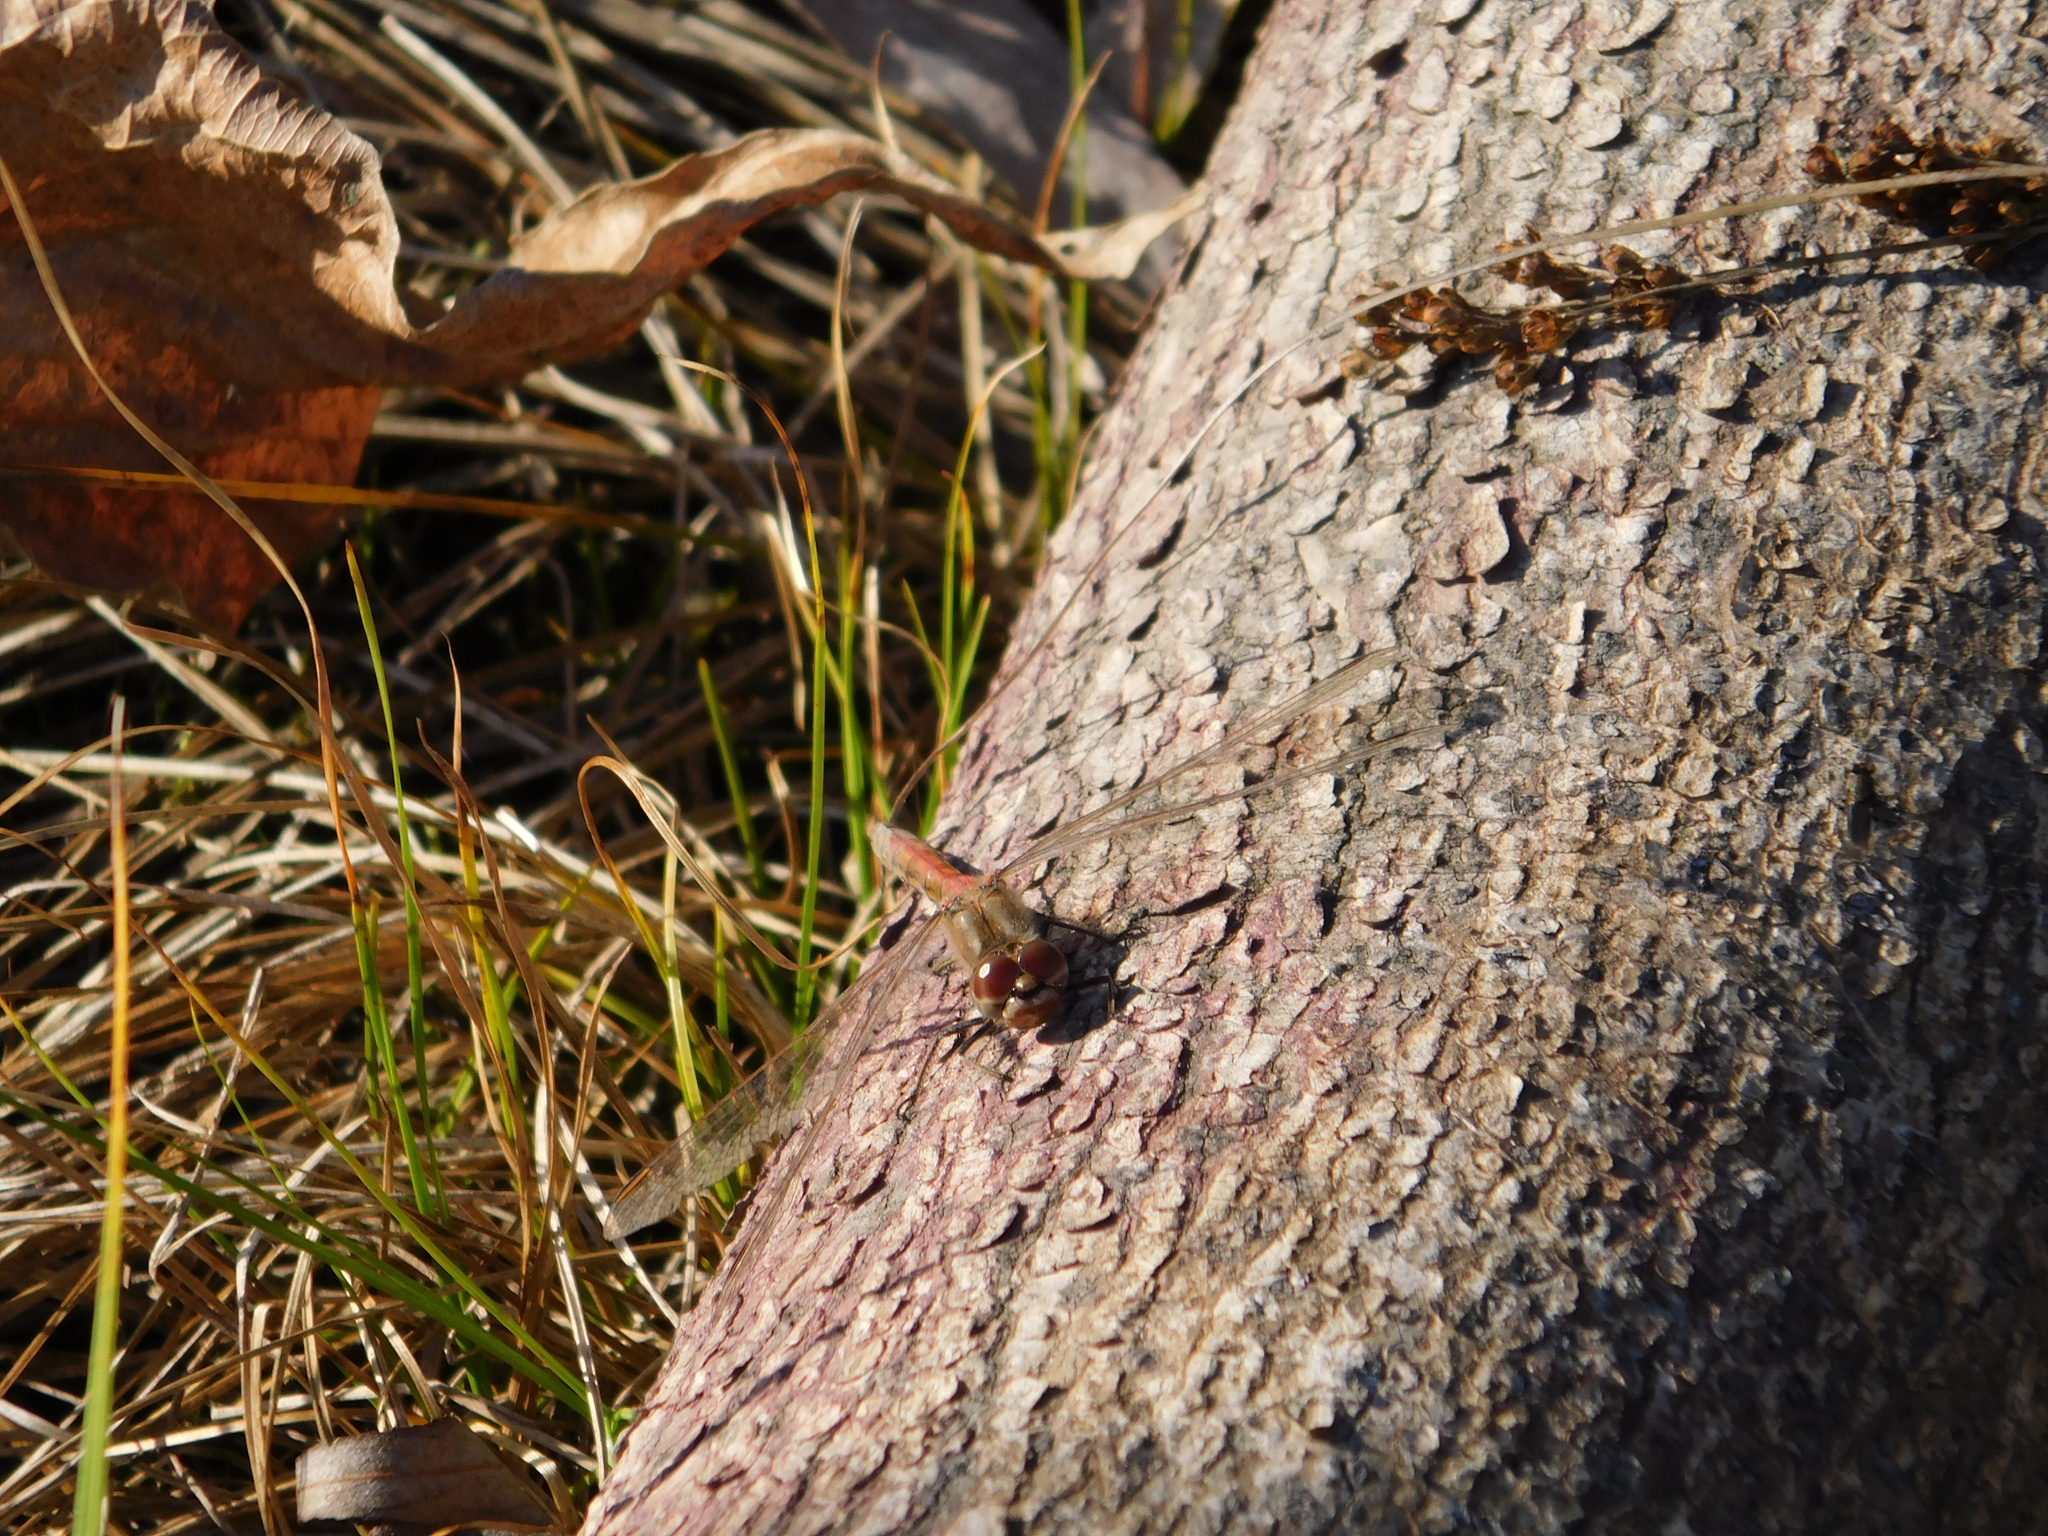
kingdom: Animalia
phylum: Arthropoda
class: Insecta
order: Odonata
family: Libellulidae
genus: Sympetrum
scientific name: Sympetrum vulgatum
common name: Vagrant darter
